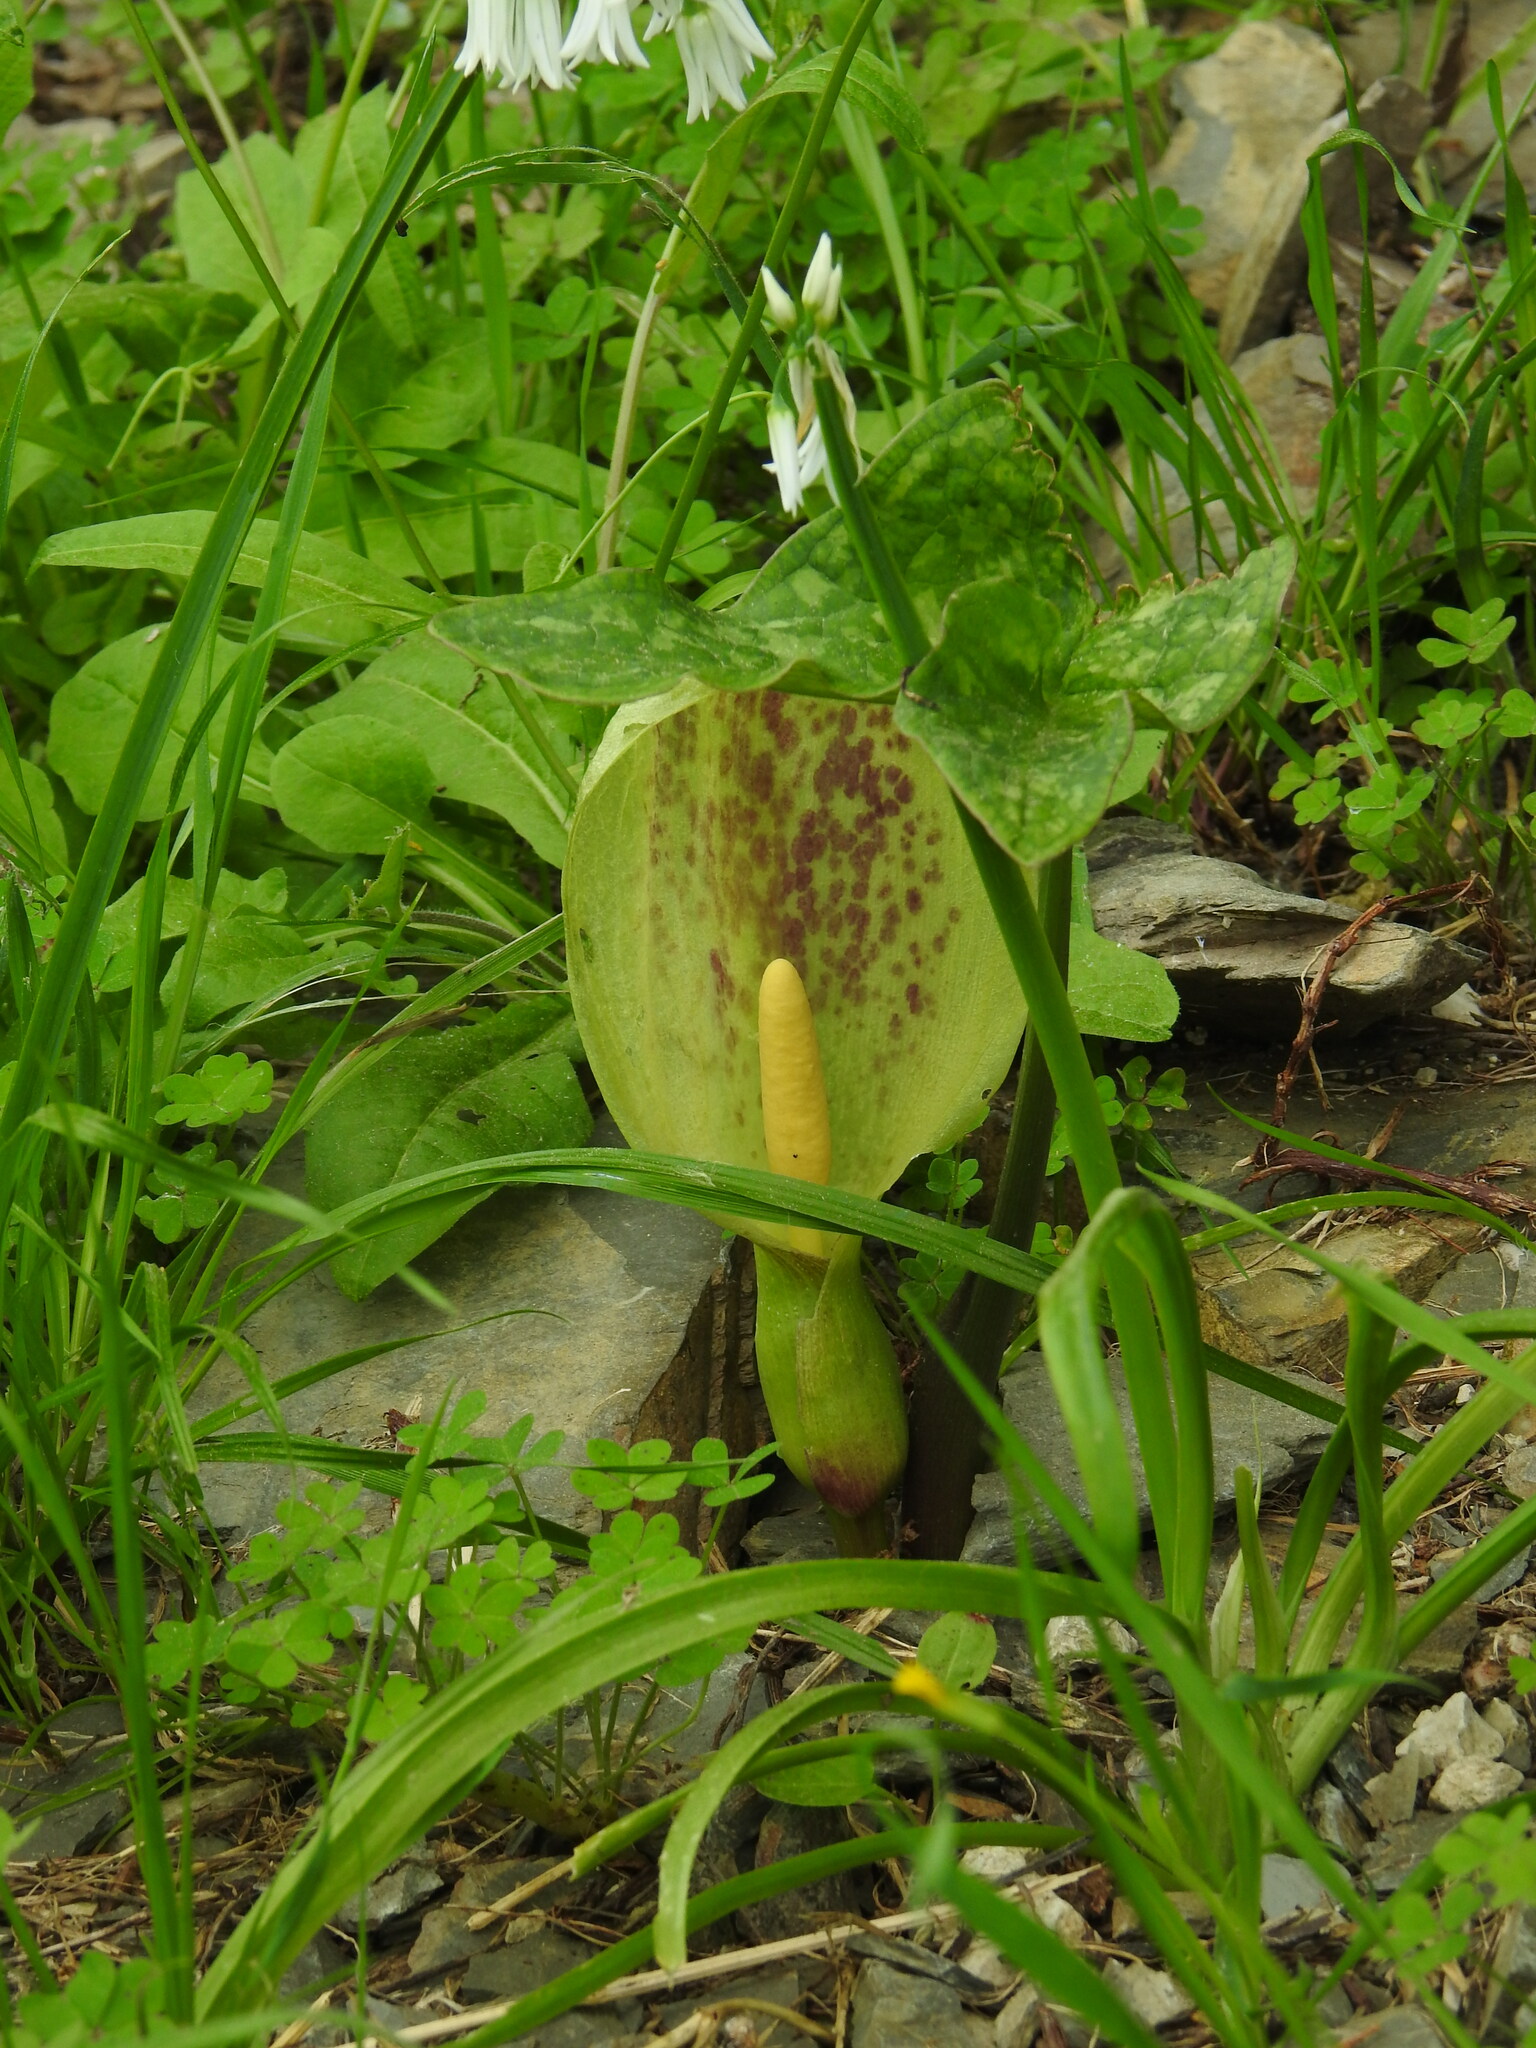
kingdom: Plantae
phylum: Tracheophyta
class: Liliopsida
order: Alismatales
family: Araceae
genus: Arum
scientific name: Arum italicum
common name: Italian lords-and-ladies
